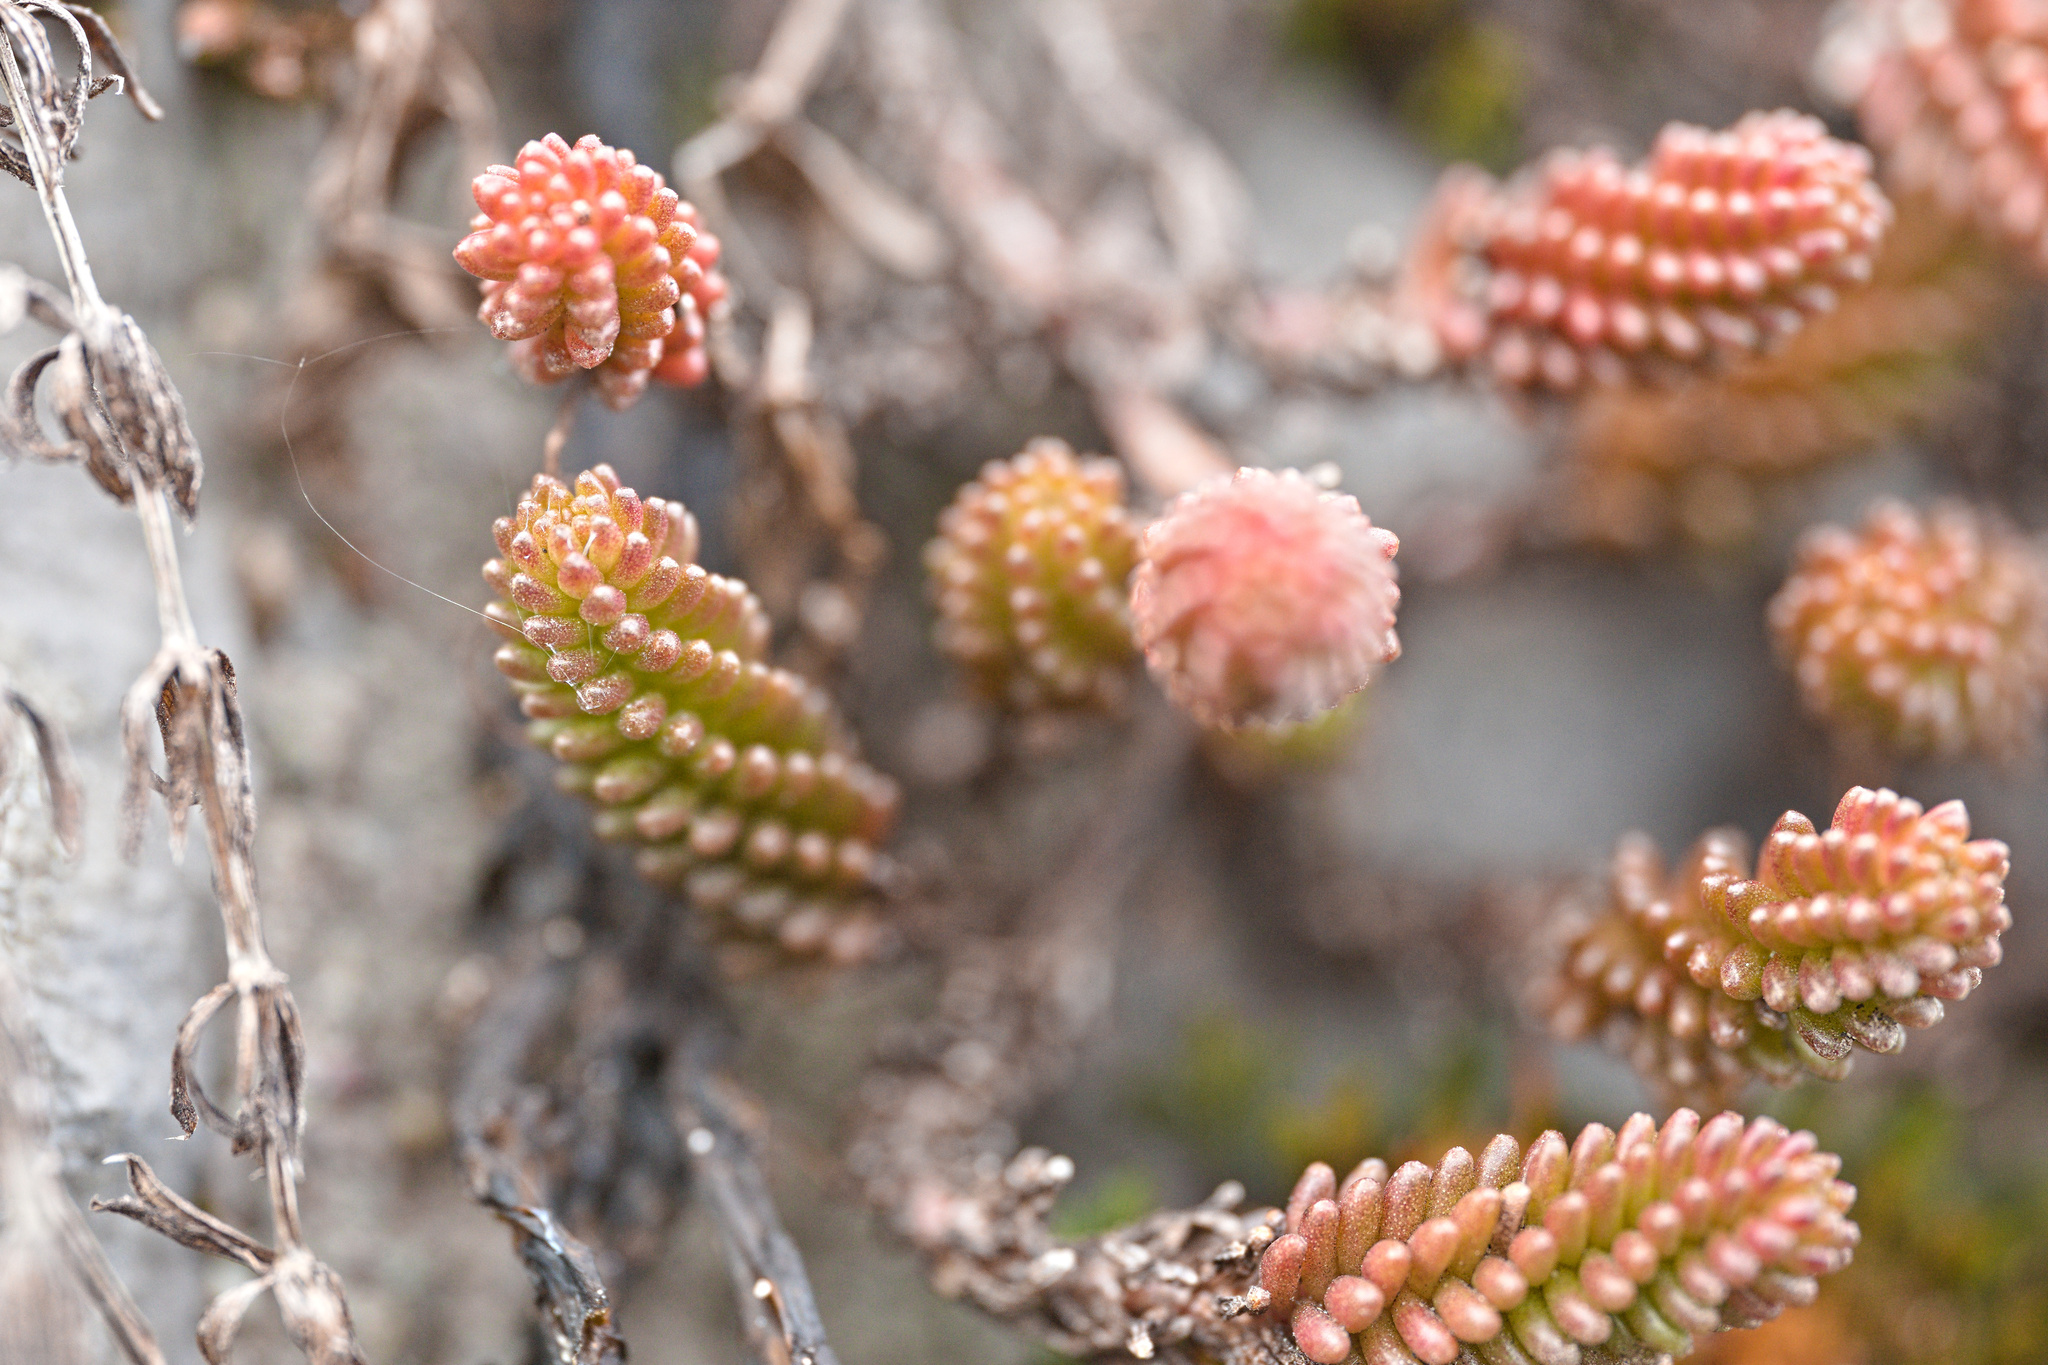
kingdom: Plantae
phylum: Tracheophyta
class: Magnoliopsida
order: Saxifragales
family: Crassulaceae
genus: Sedum
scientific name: Sedum sexangulare
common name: Tasteless stonecrop
